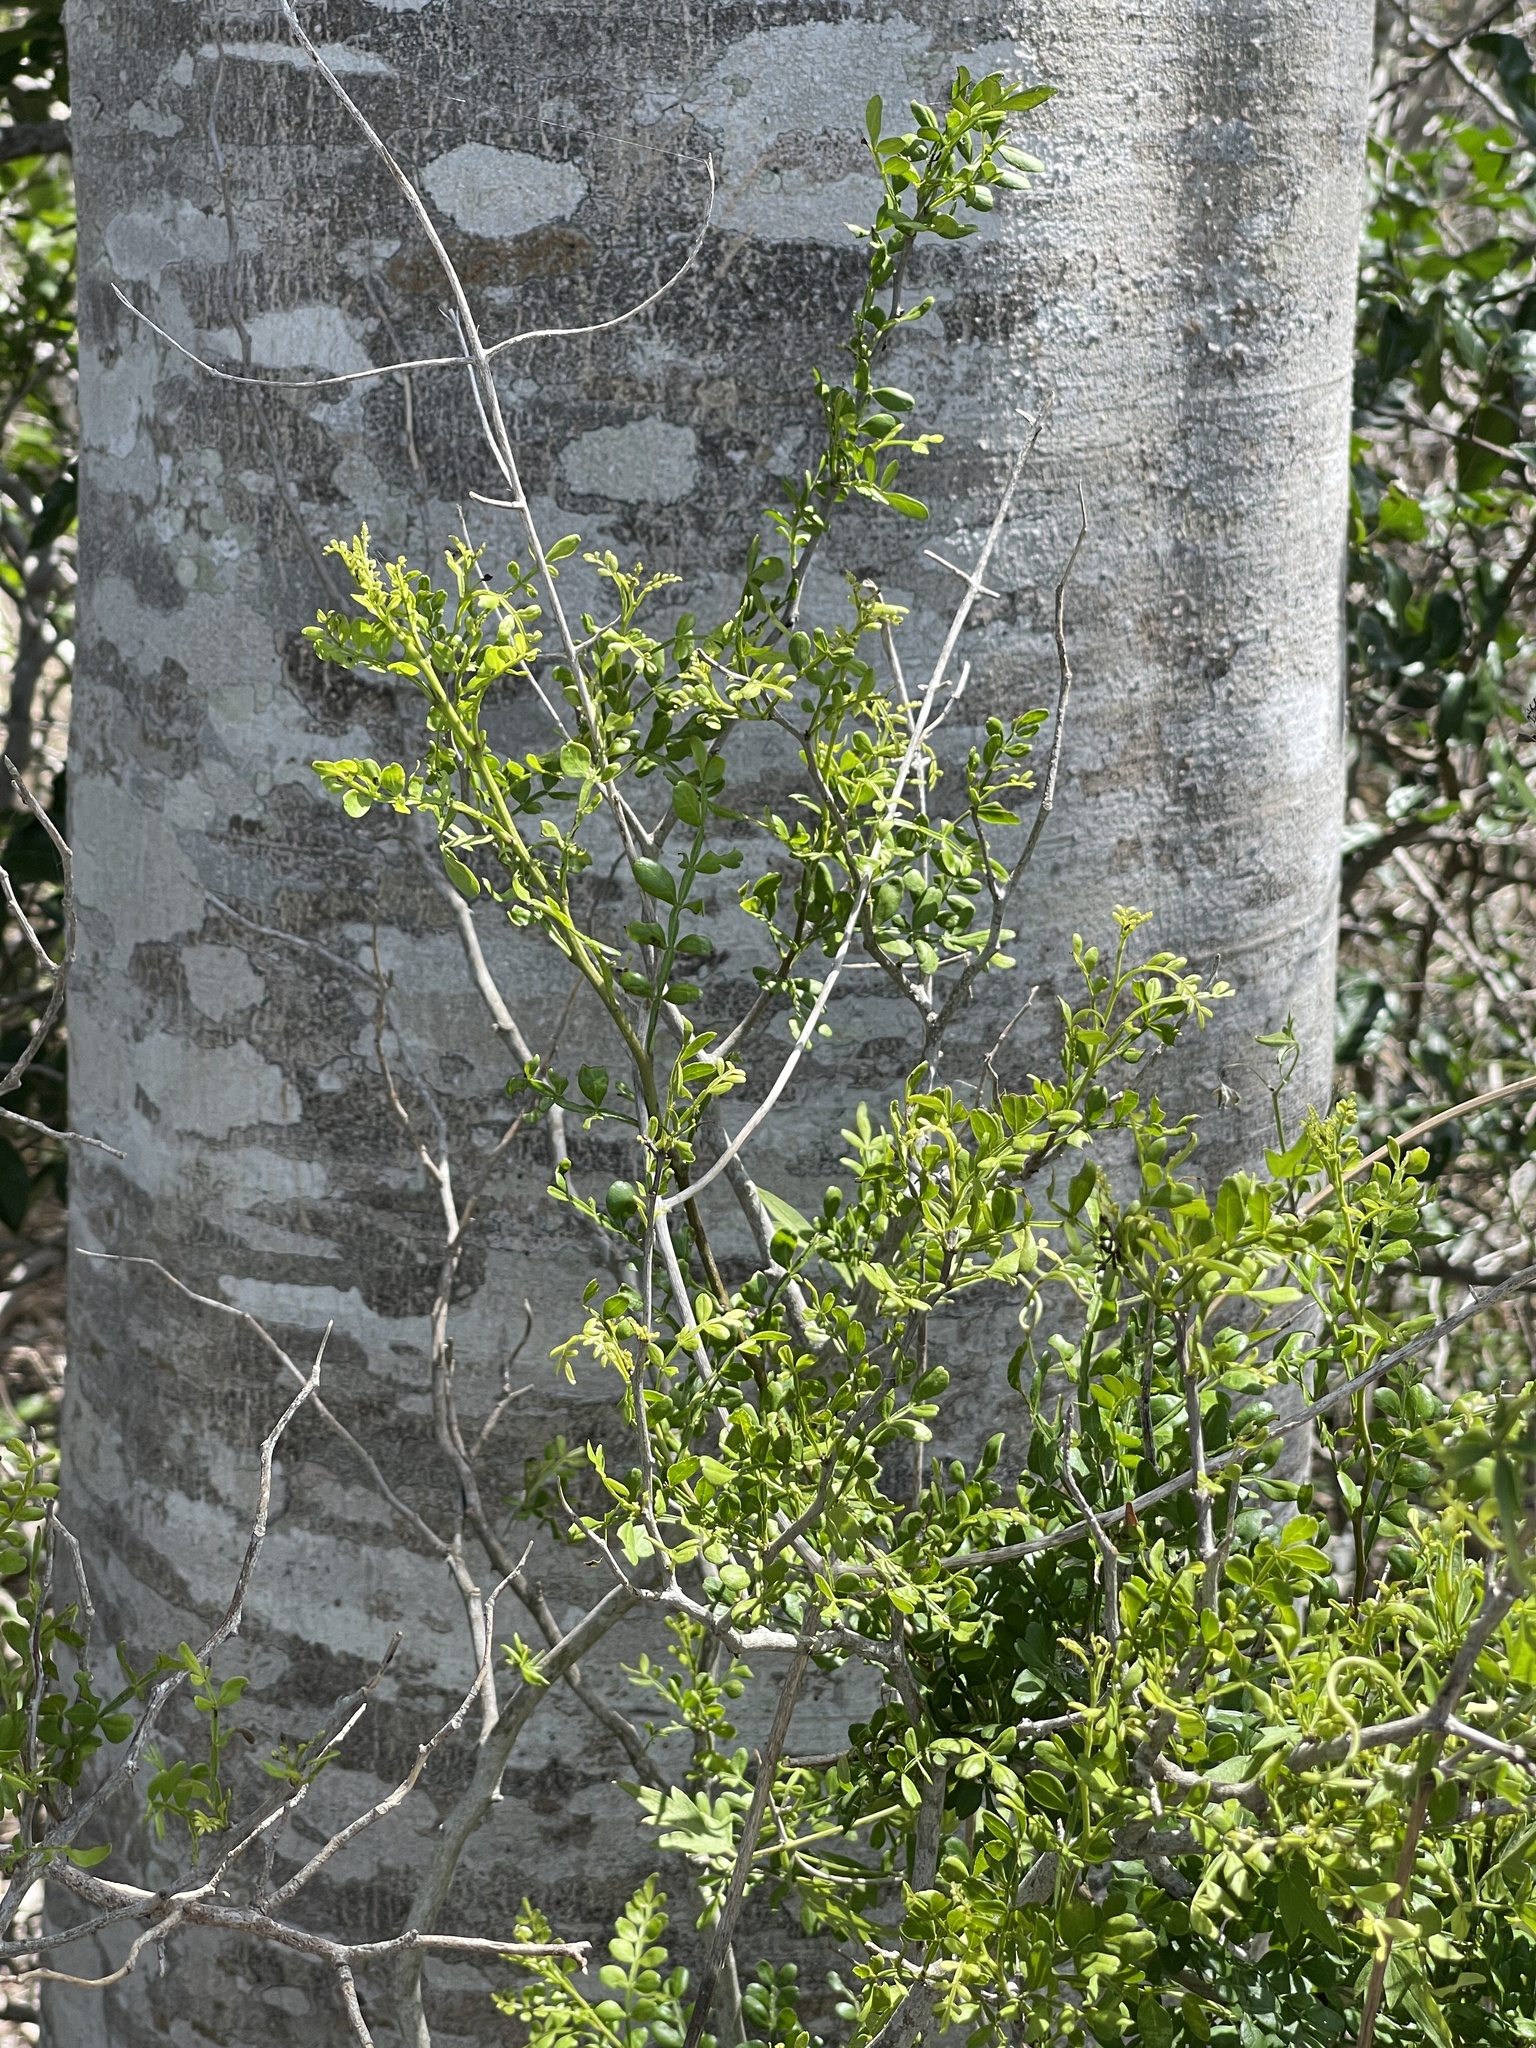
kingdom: Plantae
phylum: Tracheophyta
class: Magnoliopsida
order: Sapindales
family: Rutaceae
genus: Zanthoxylum
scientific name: Zanthoxylum fagara
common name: Lime prickly-ash
